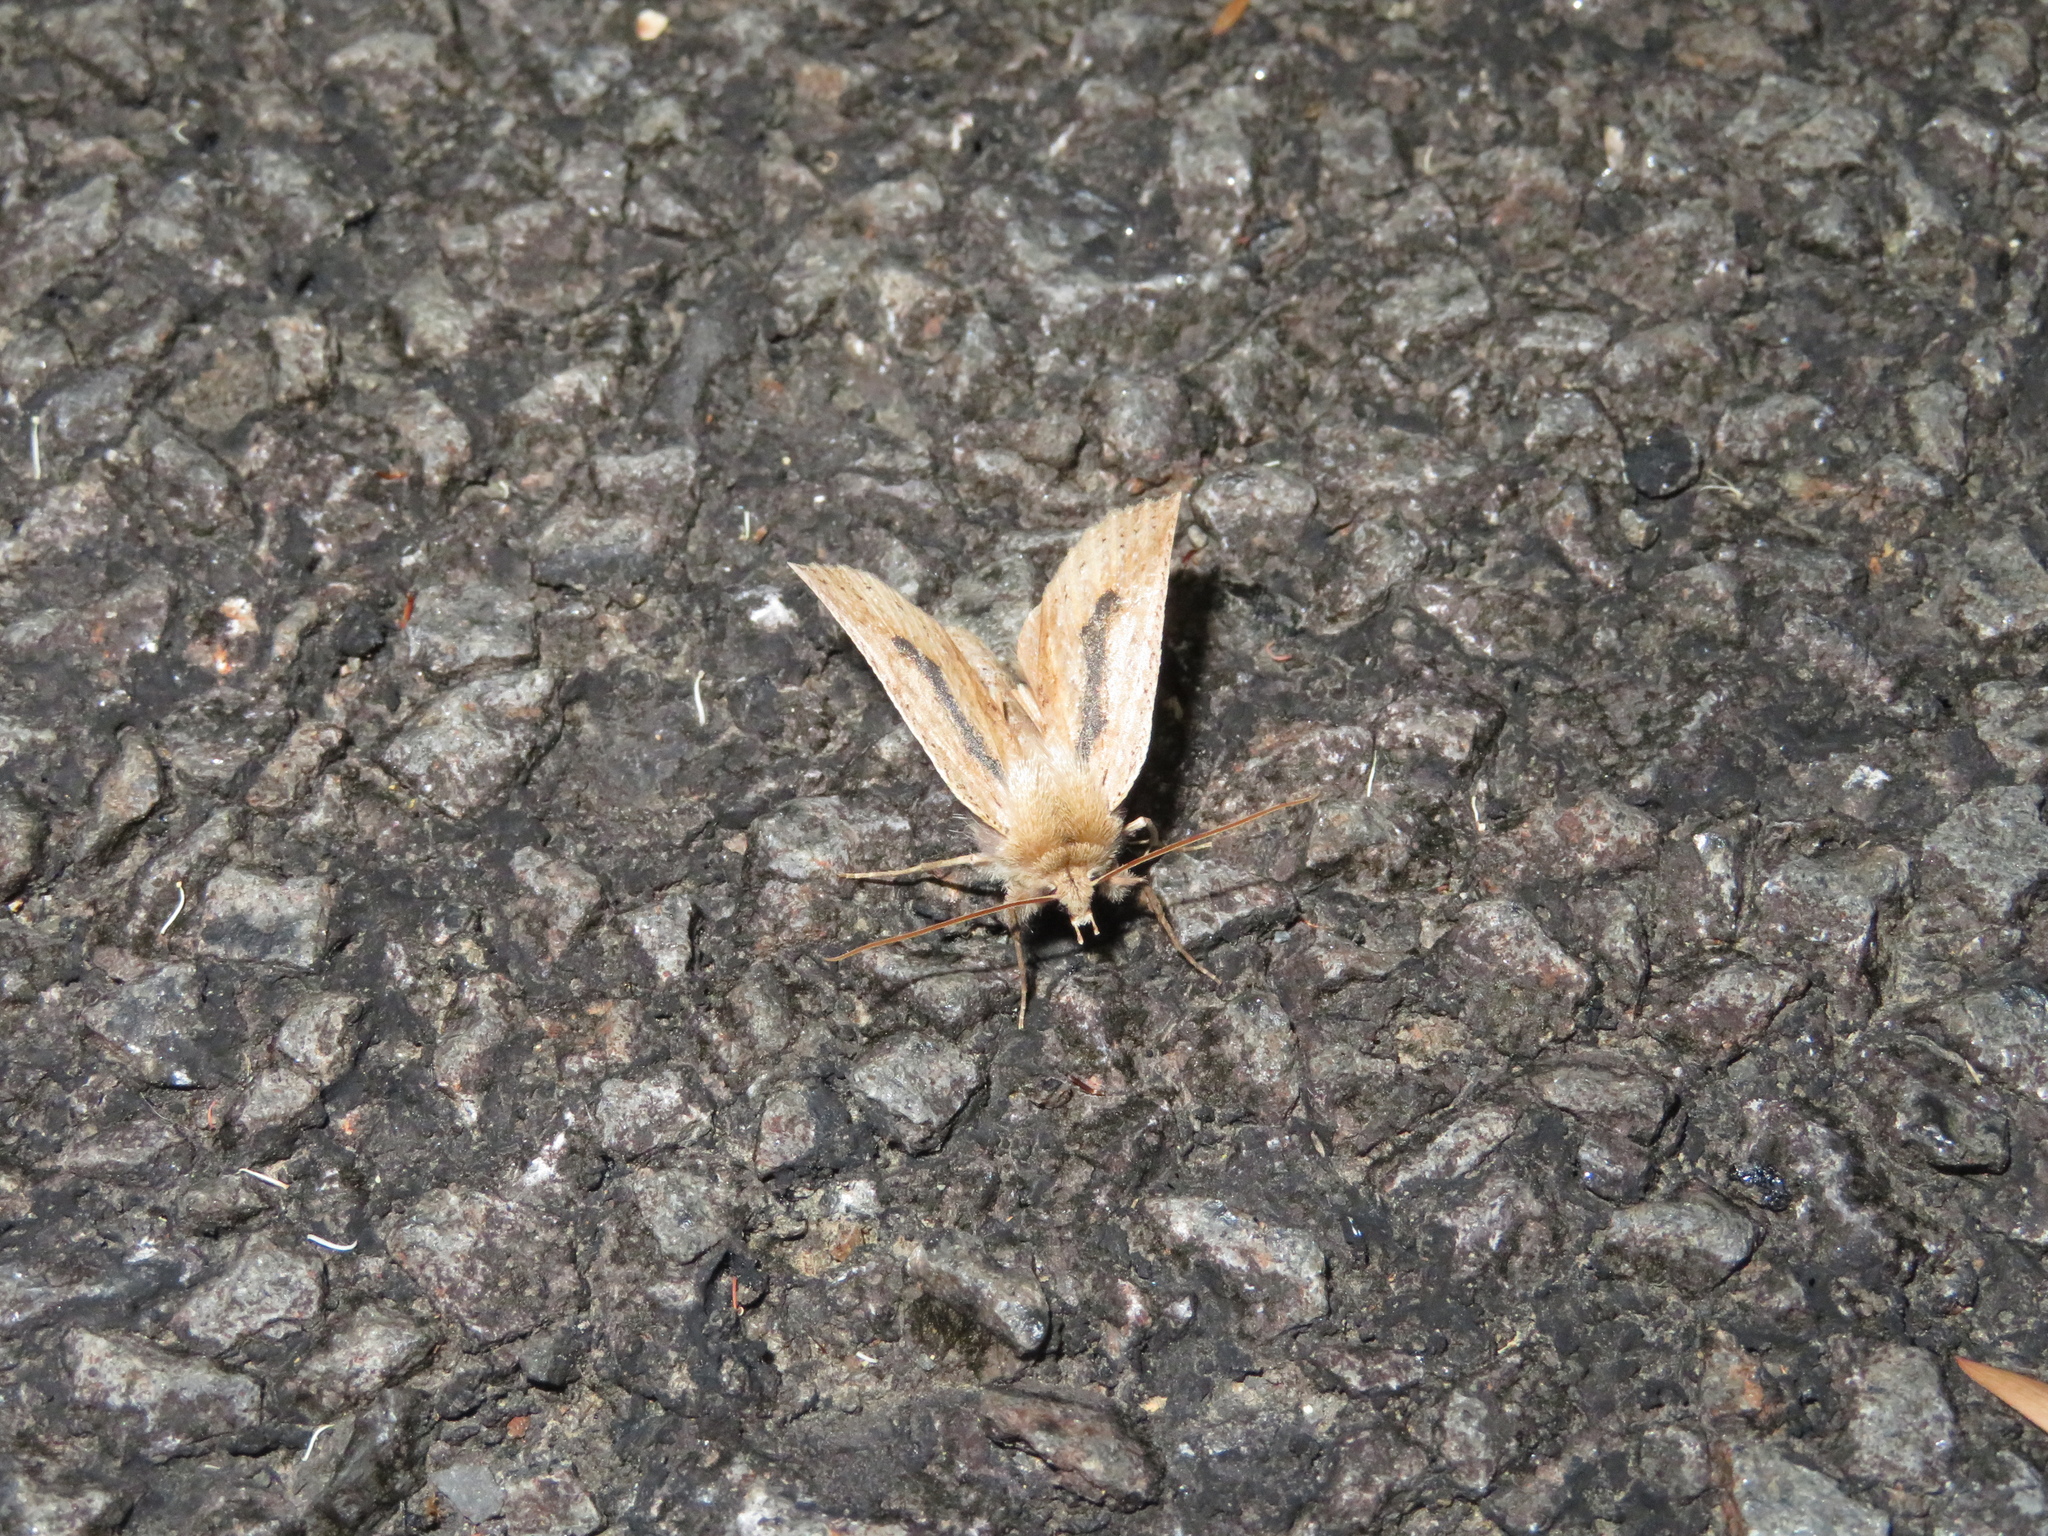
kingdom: Animalia
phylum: Arthropoda
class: Insecta
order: Lepidoptera
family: Geometridae
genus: Declana
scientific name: Declana leptomera
